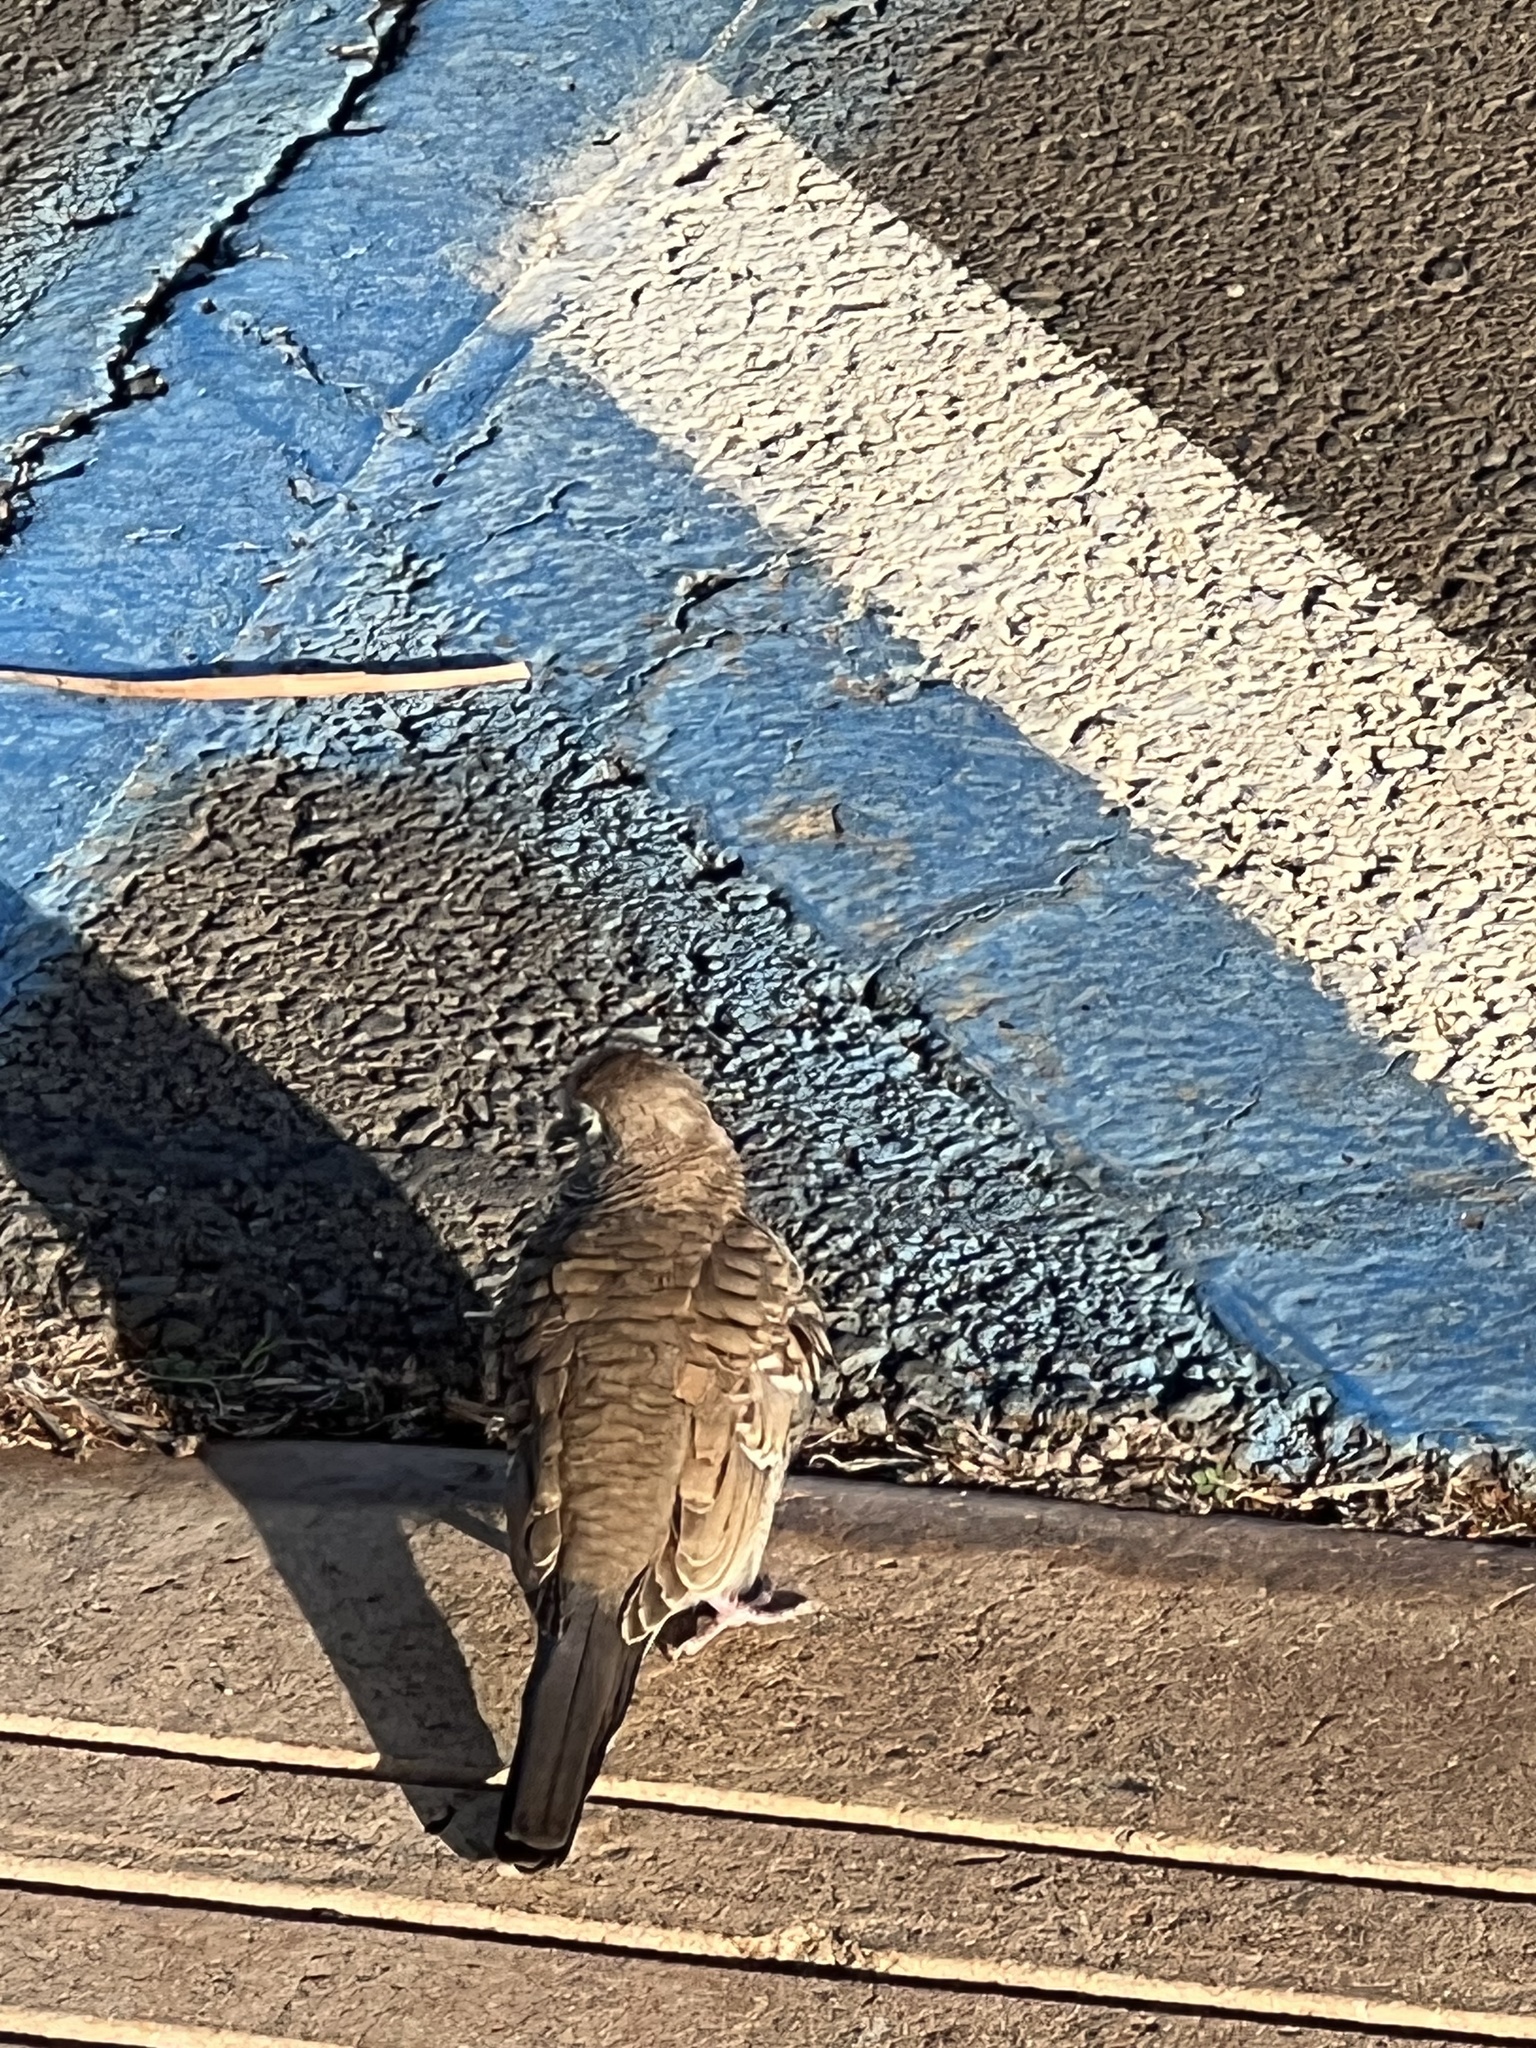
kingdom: Animalia
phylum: Chordata
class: Aves
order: Columbiformes
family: Columbidae
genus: Geopelia
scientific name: Geopelia striata
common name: Zebra dove
